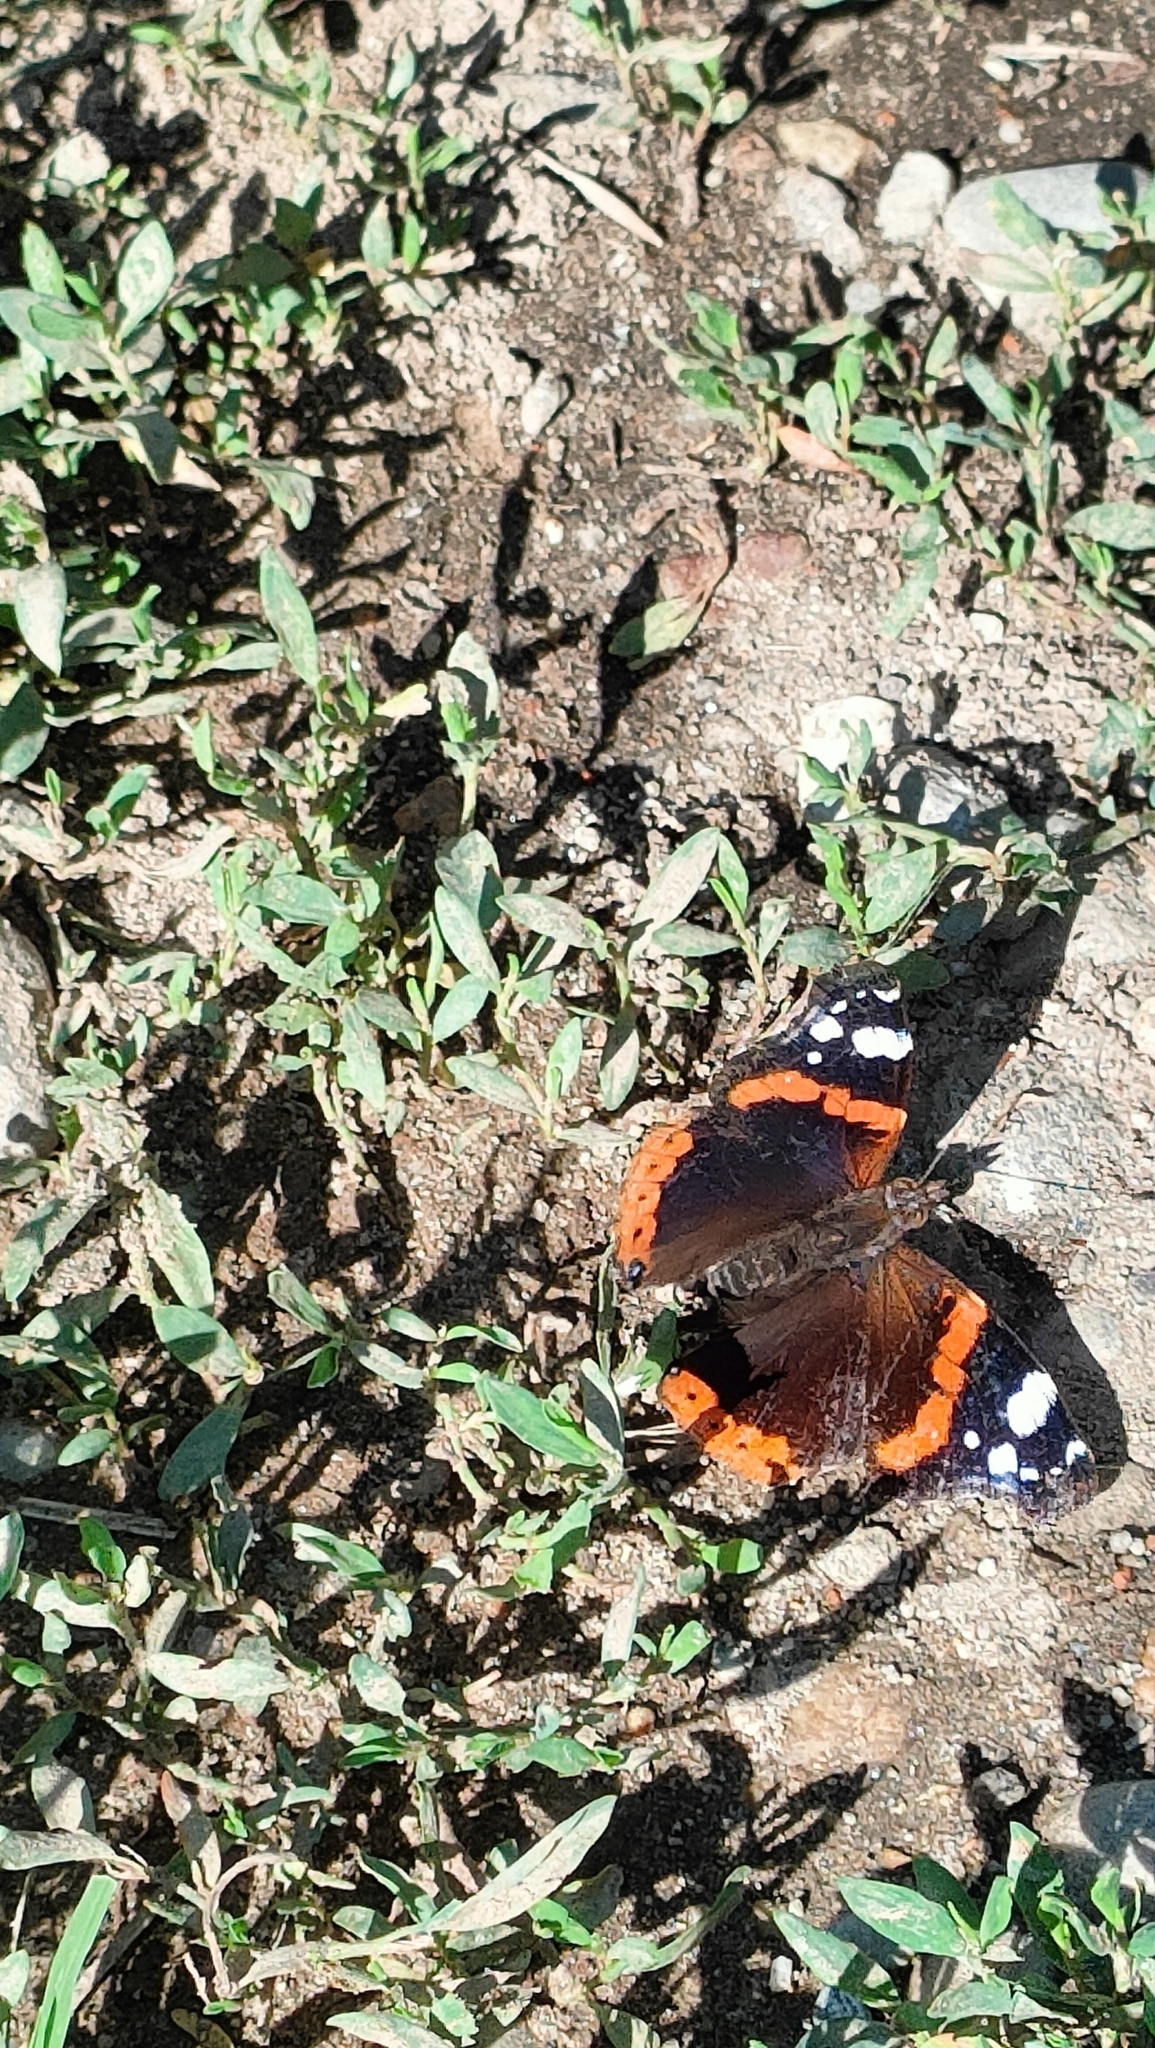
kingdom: Animalia
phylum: Arthropoda
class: Insecta
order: Lepidoptera
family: Nymphalidae
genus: Vanessa
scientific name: Vanessa atalanta
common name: Red admiral
